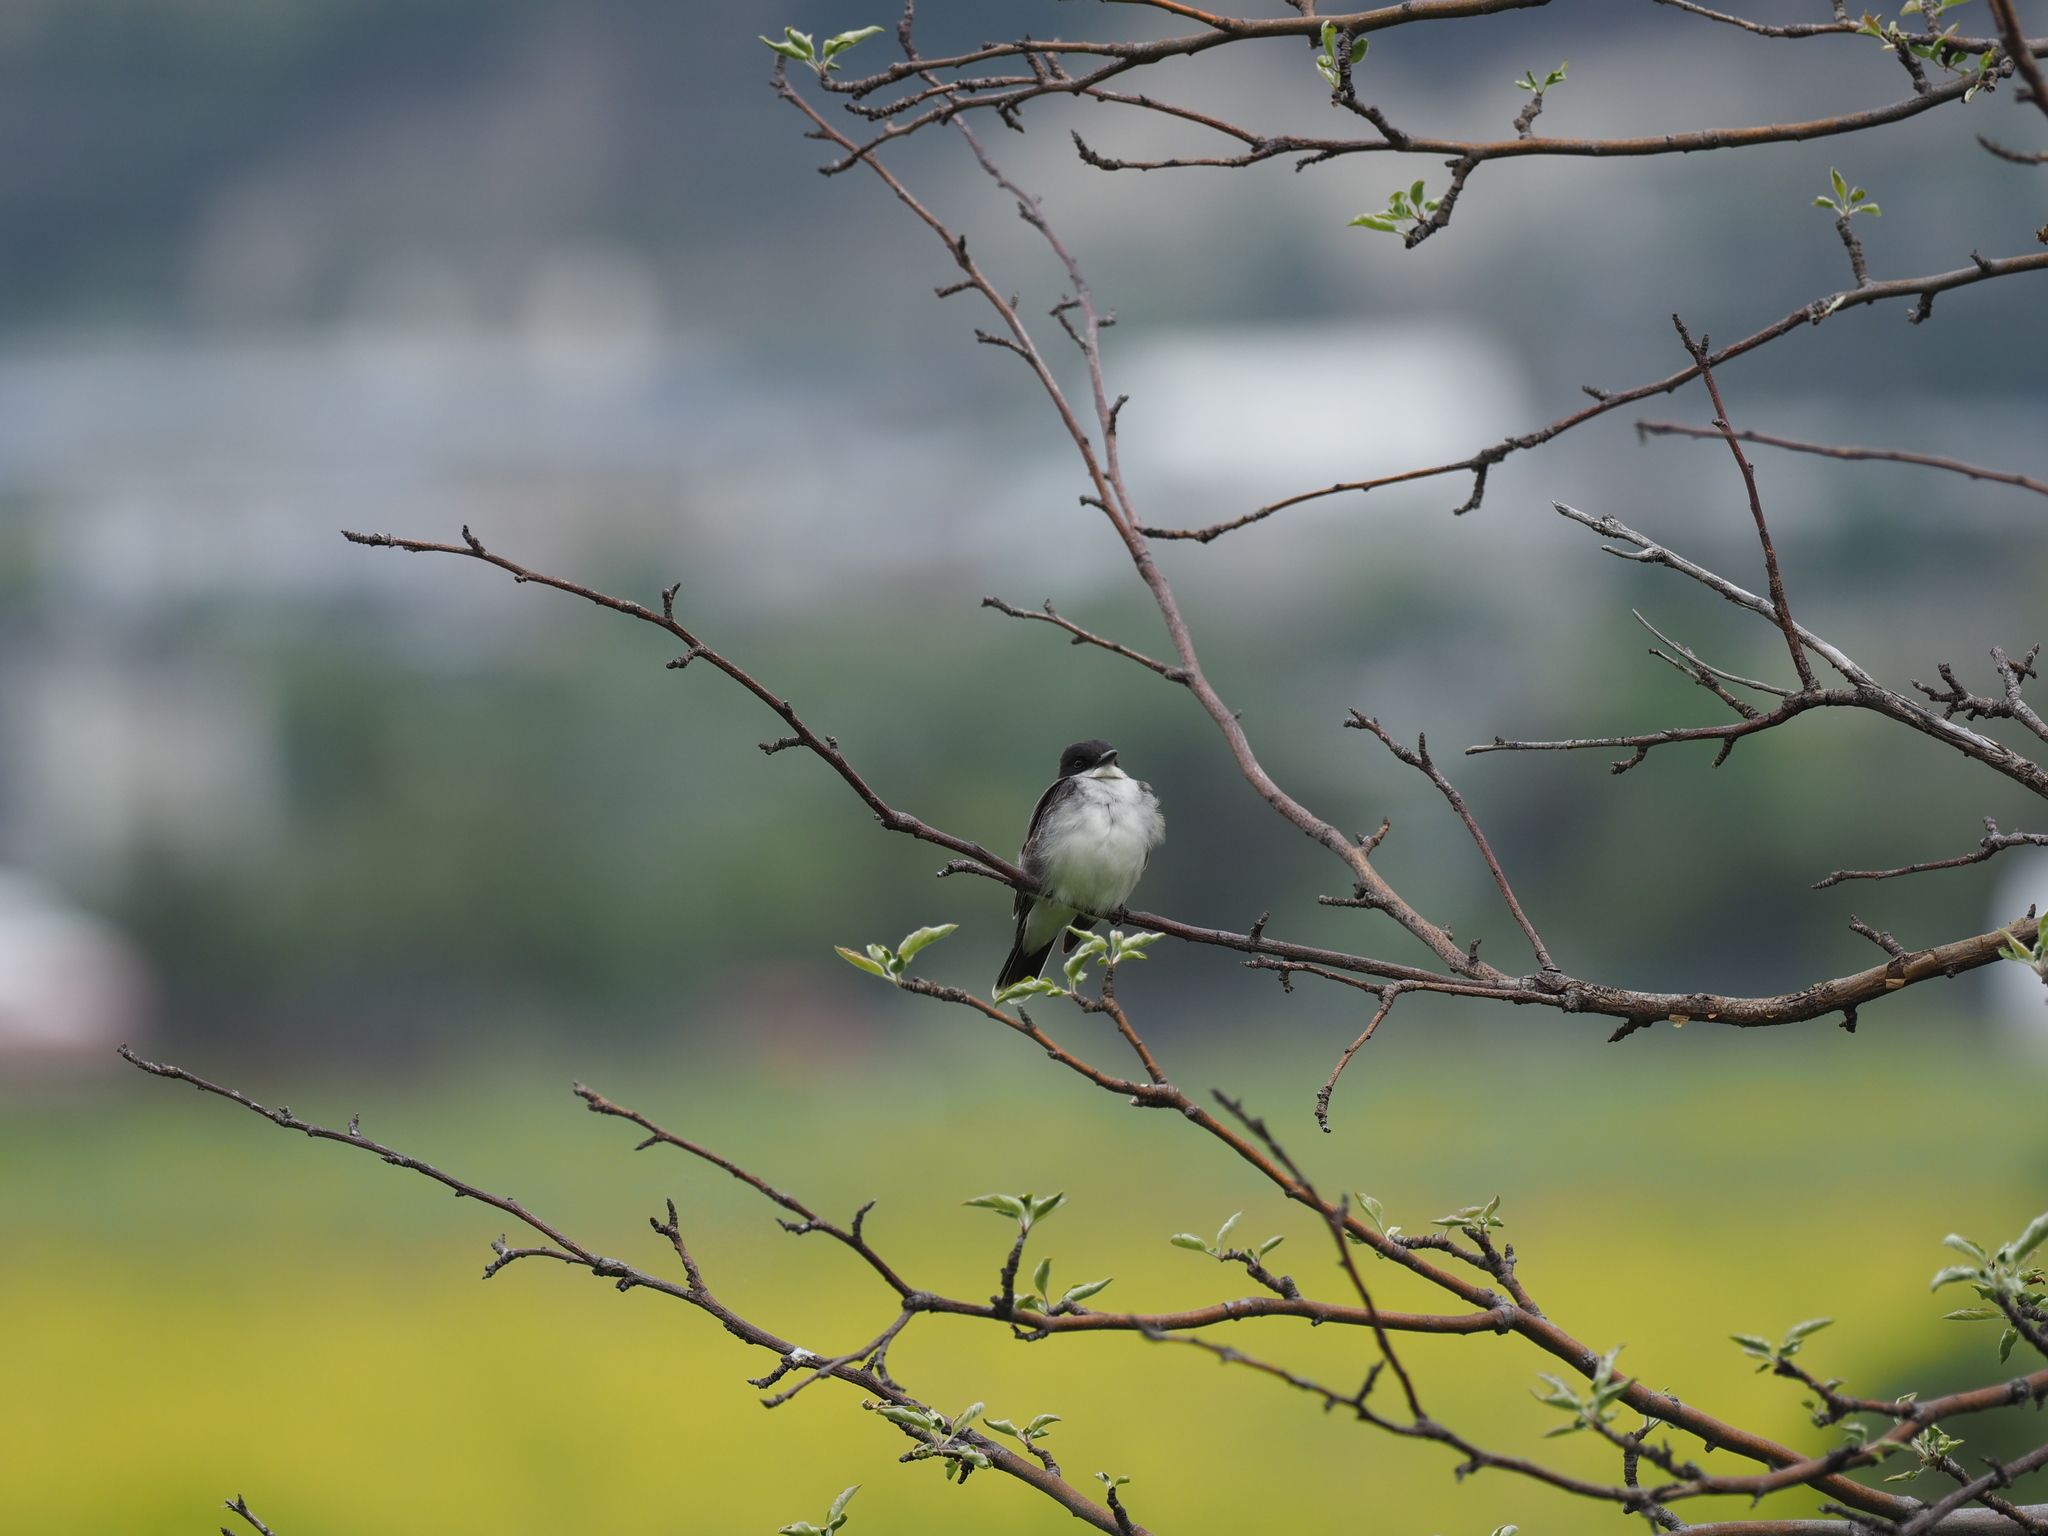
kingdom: Animalia
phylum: Chordata
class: Aves
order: Passeriformes
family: Tyrannidae
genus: Tyrannus
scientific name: Tyrannus tyrannus
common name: Eastern kingbird
